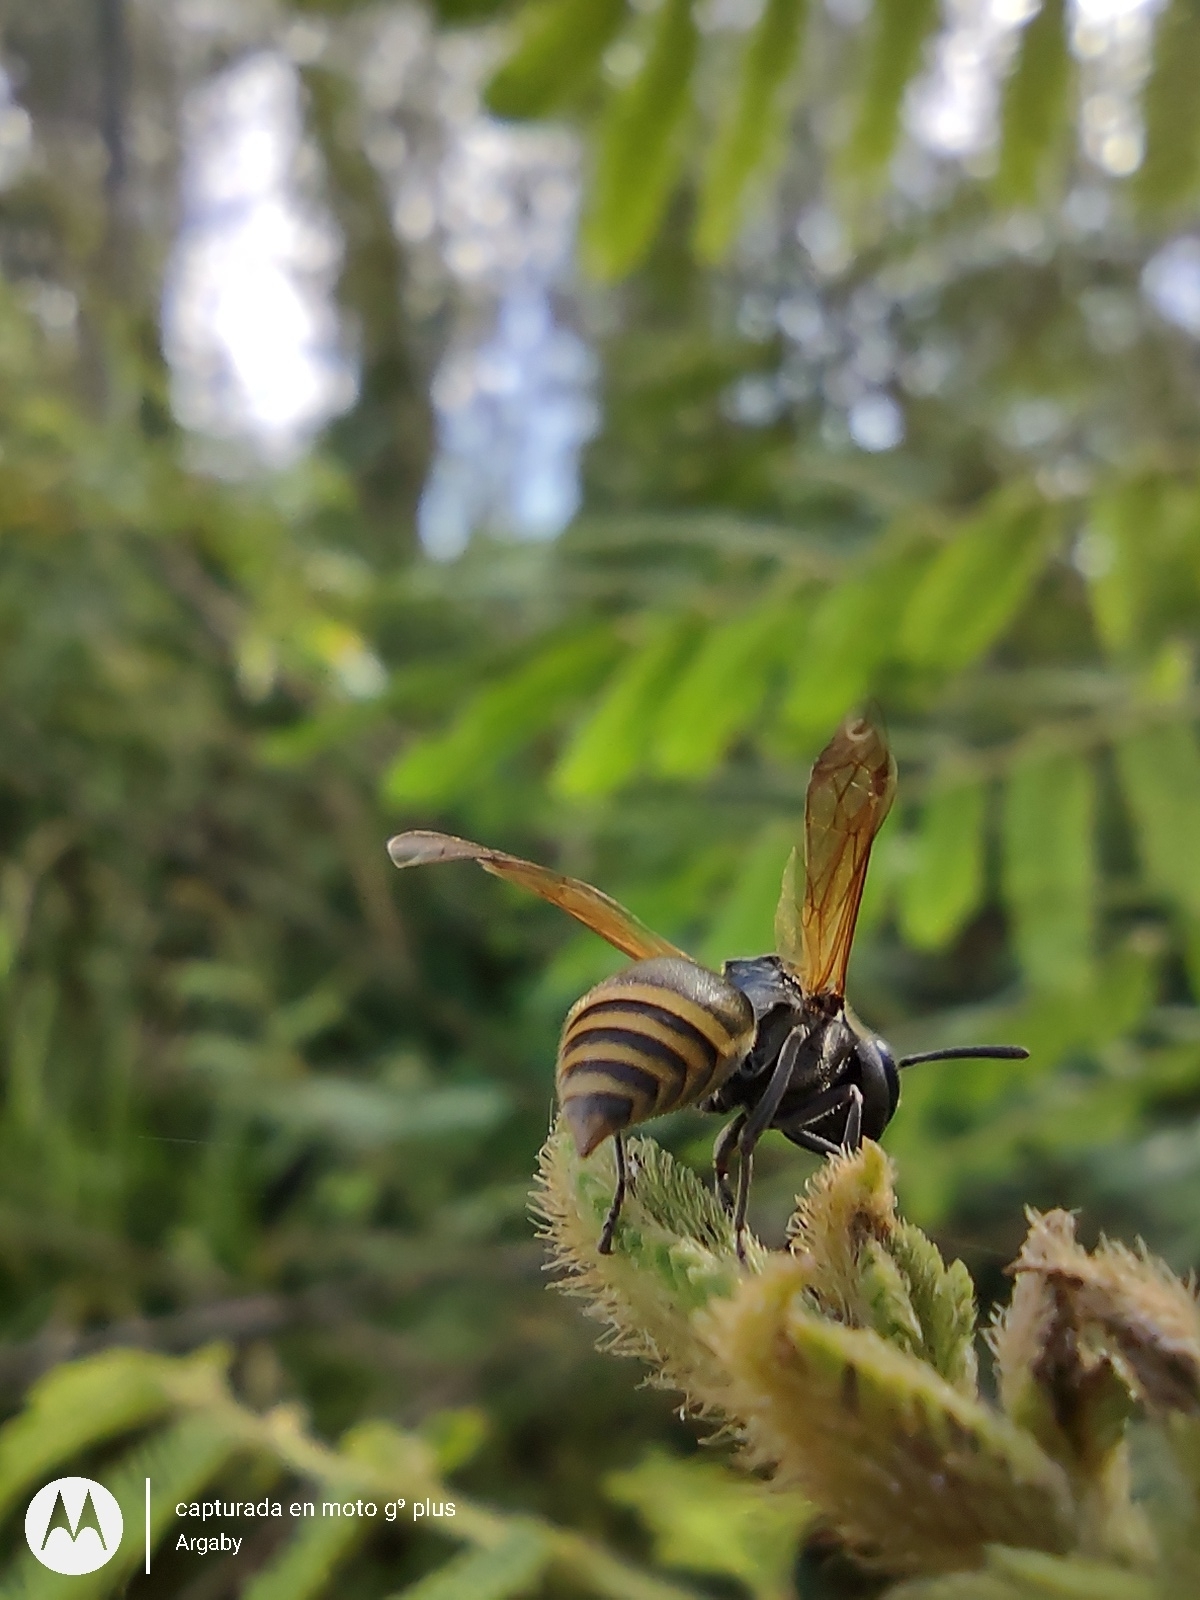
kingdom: Animalia
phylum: Arthropoda
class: Insecta
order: Hymenoptera
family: Vespidae
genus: Brachygastra
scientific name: Brachygastra lecheguana
